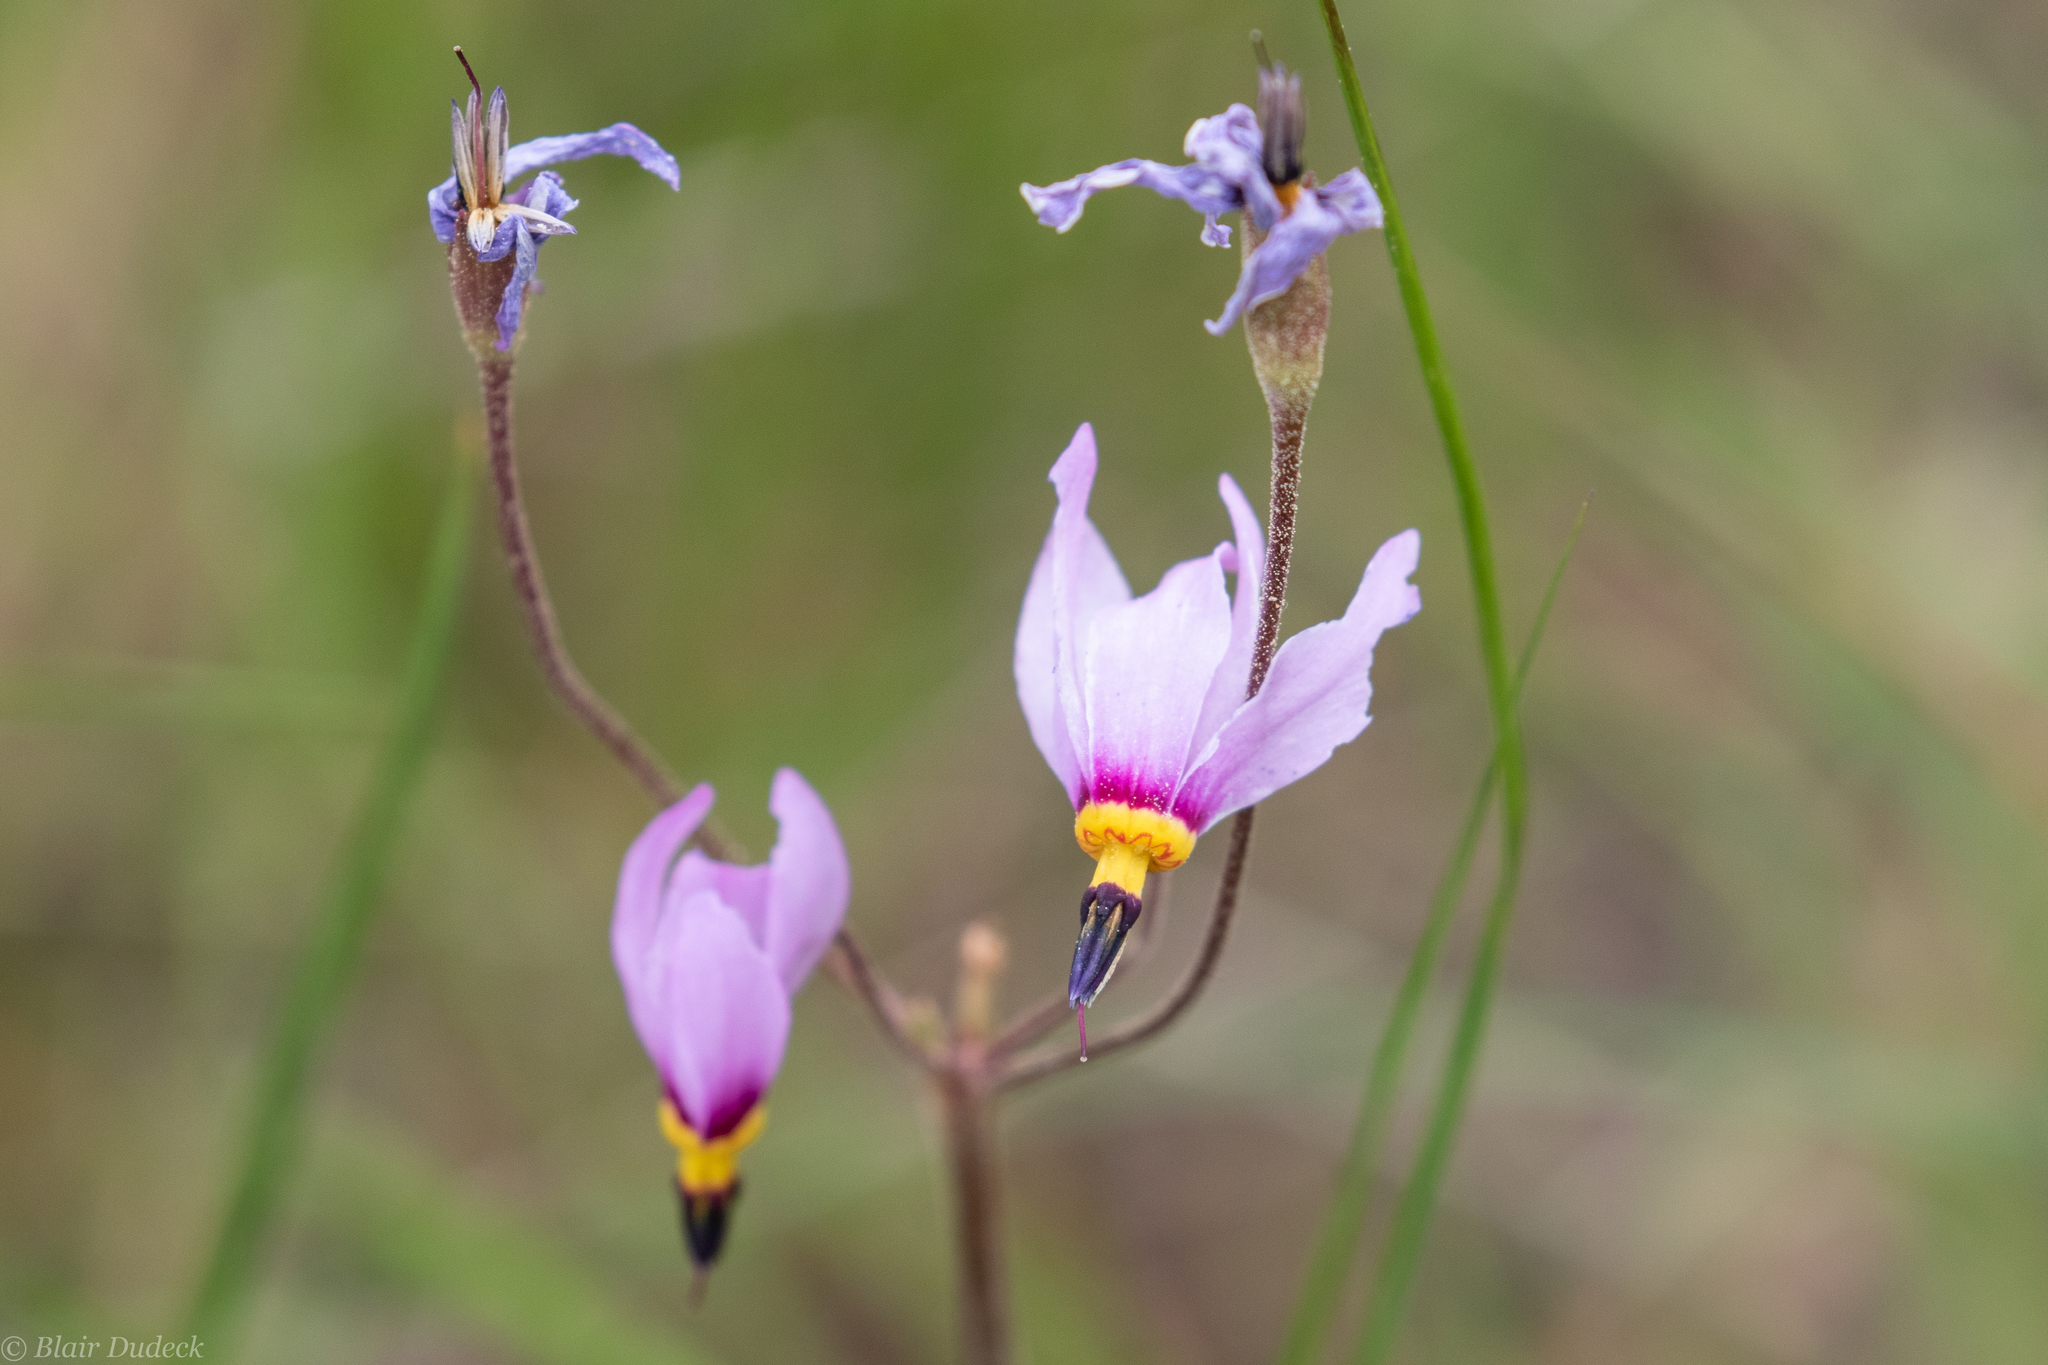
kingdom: Plantae
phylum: Tracheophyta
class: Magnoliopsida
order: Ericales
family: Primulaceae
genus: Dodecatheon
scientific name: Dodecatheon pulchellum
